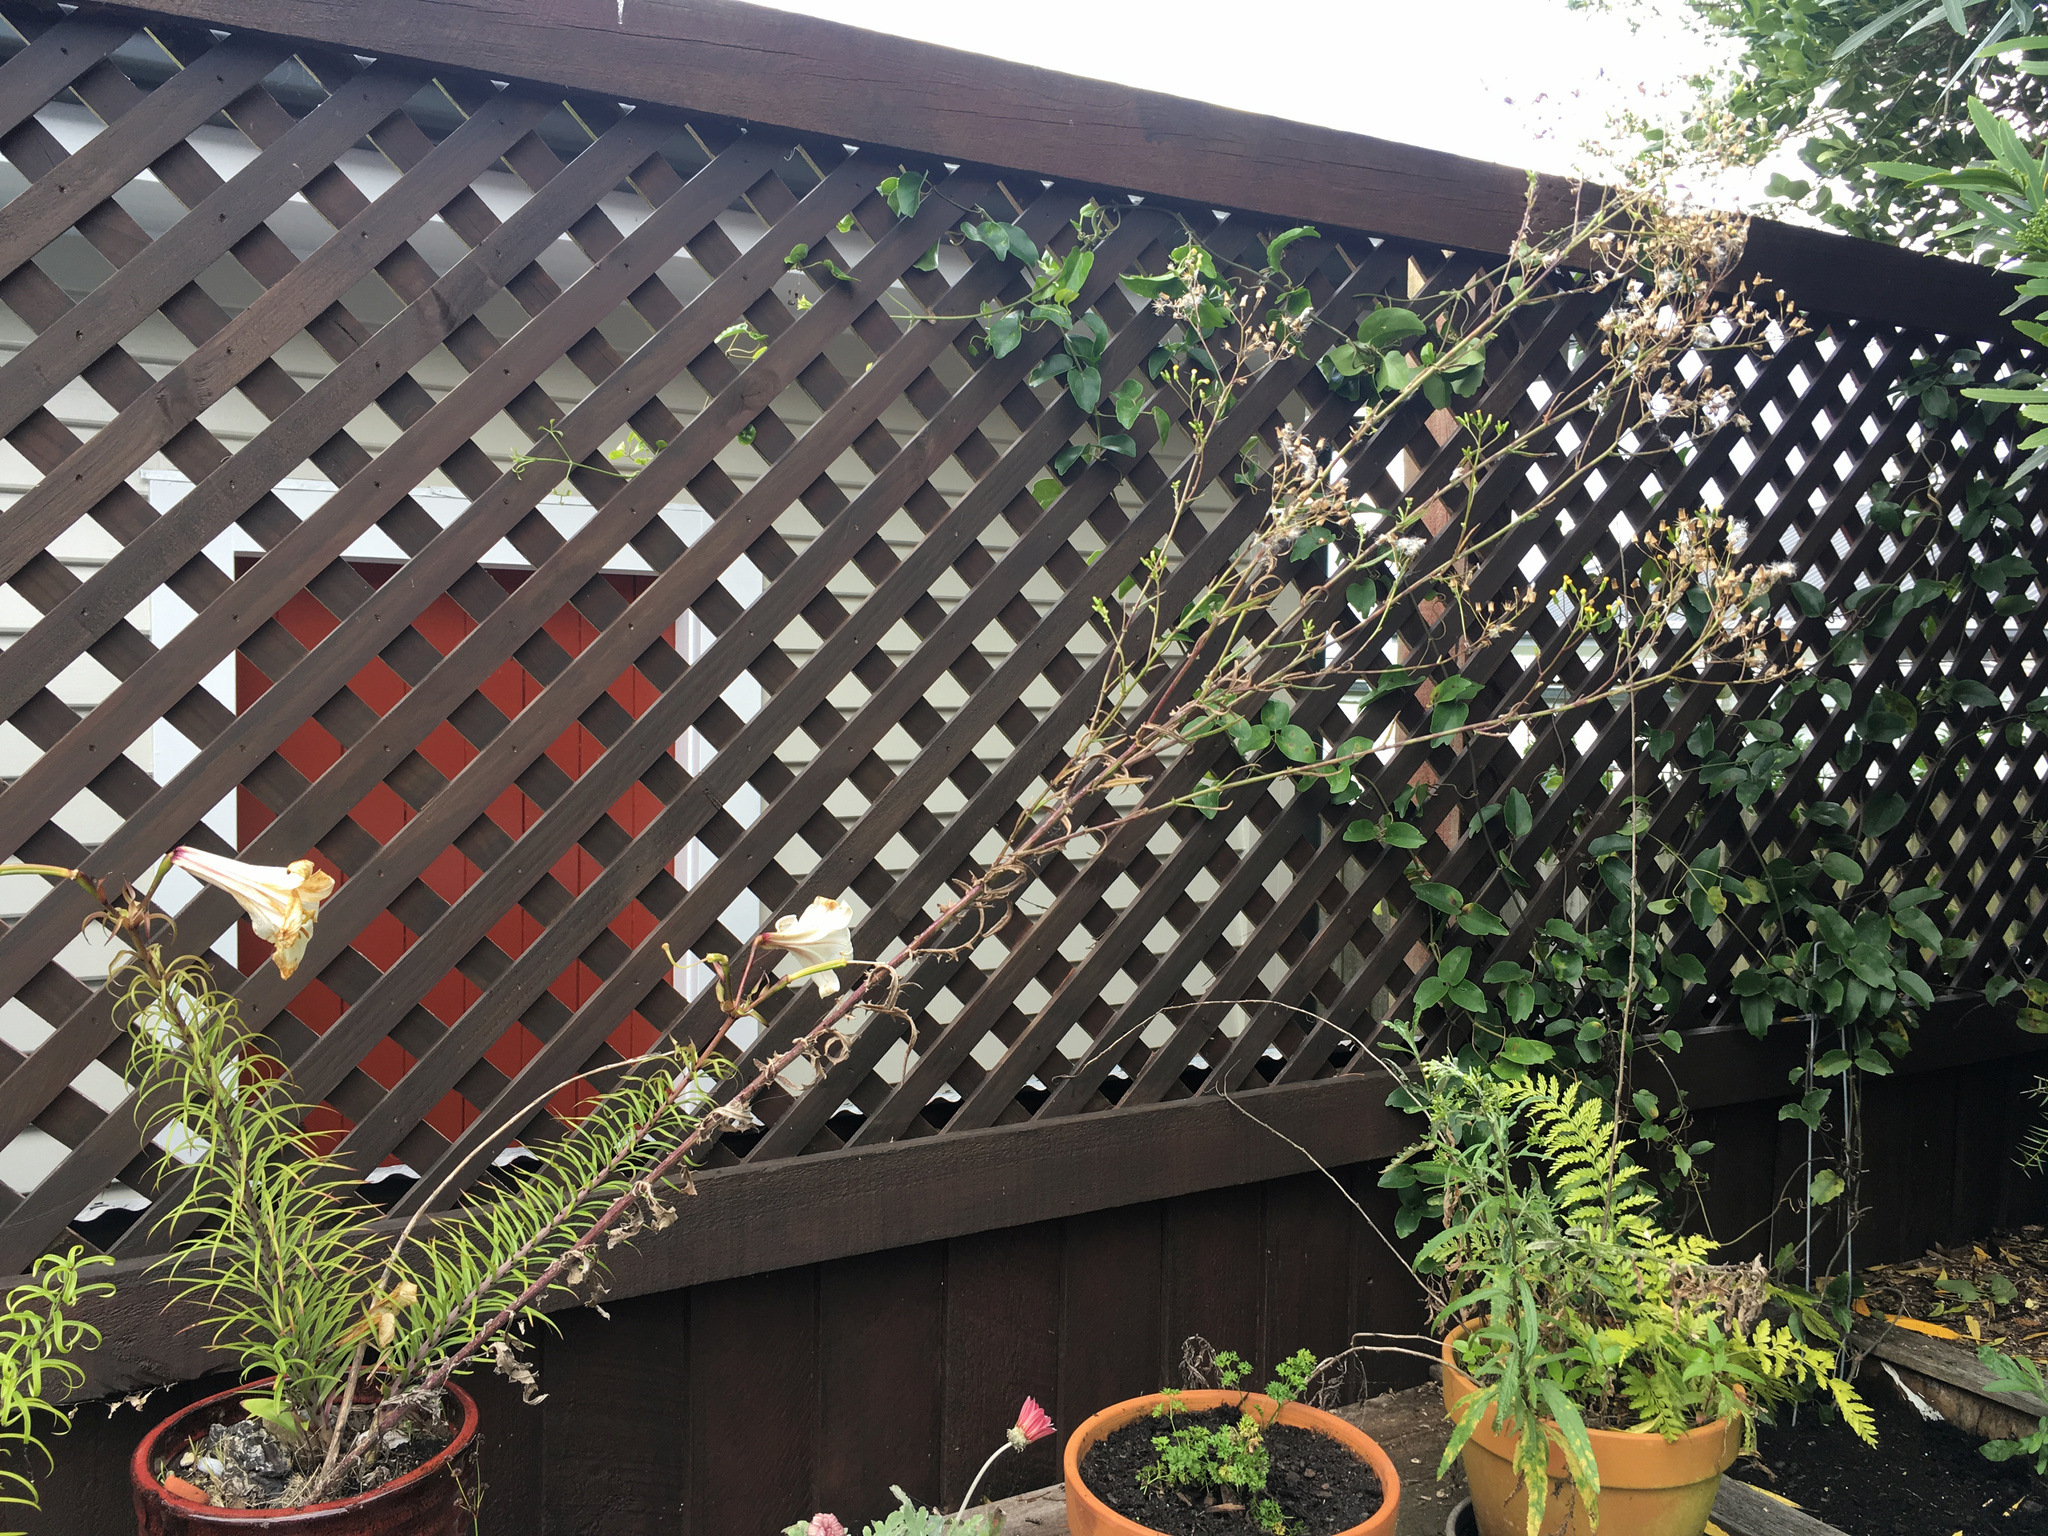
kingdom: Plantae
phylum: Tracheophyta
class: Magnoliopsida
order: Asterales
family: Asteraceae
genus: Senecio
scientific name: Senecio hispidulus
